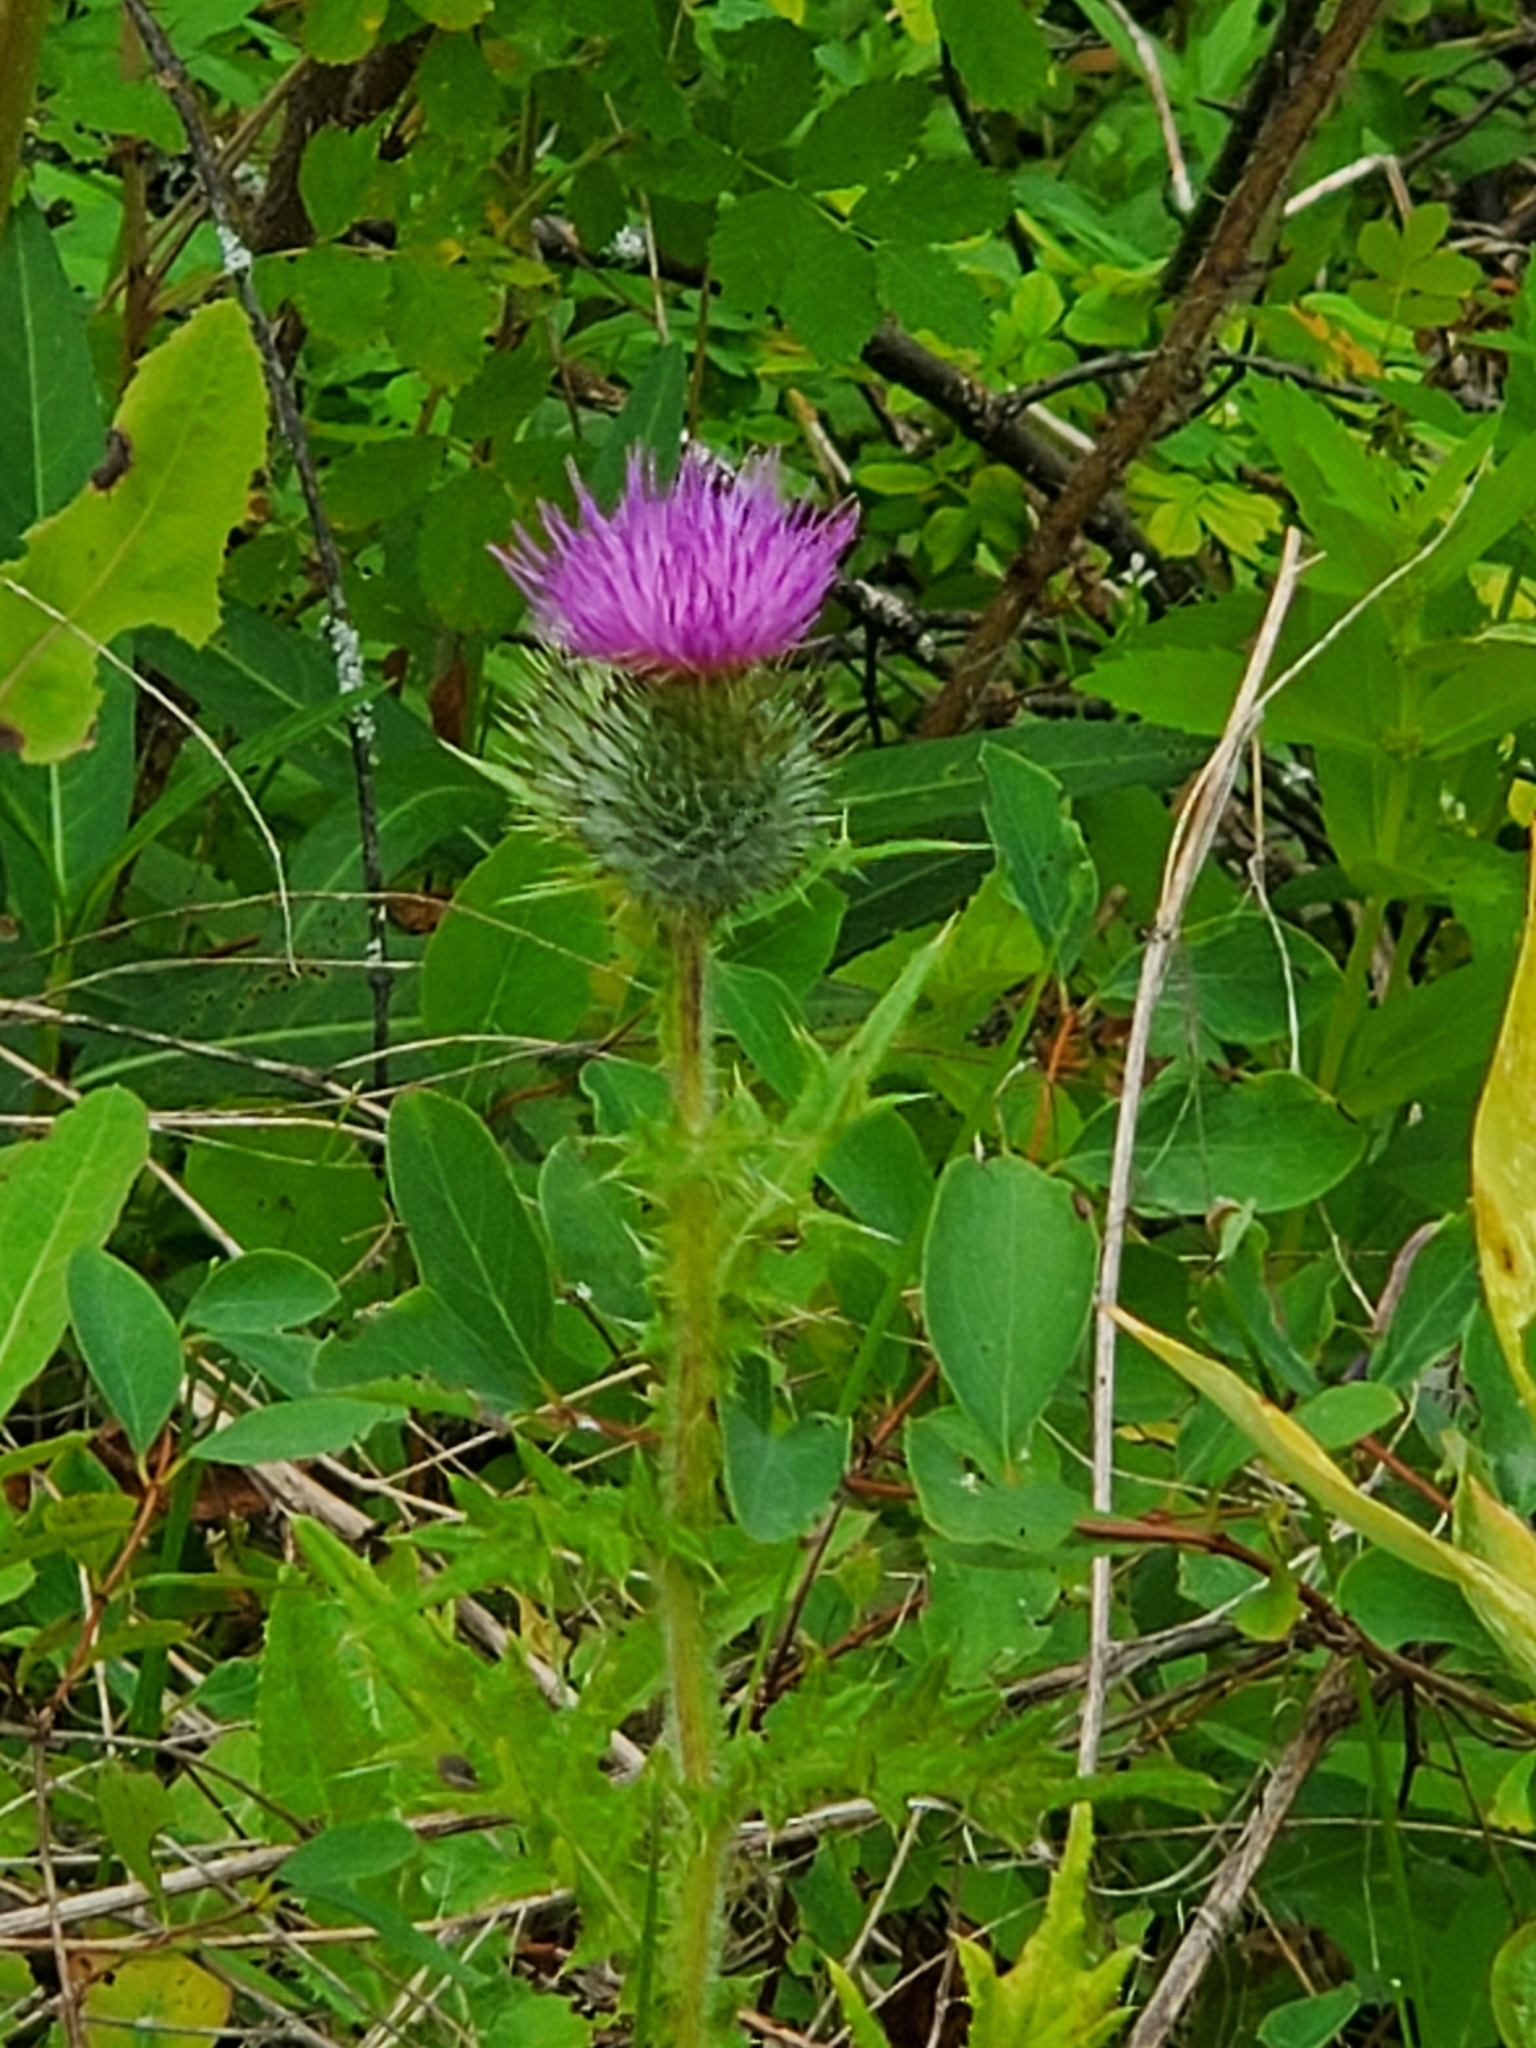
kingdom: Plantae
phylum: Tracheophyta
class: Magnoliopsida
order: Asterales
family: Asteraceae
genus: Cirsium
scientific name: Cirsium vulgare
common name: Bull thistle
